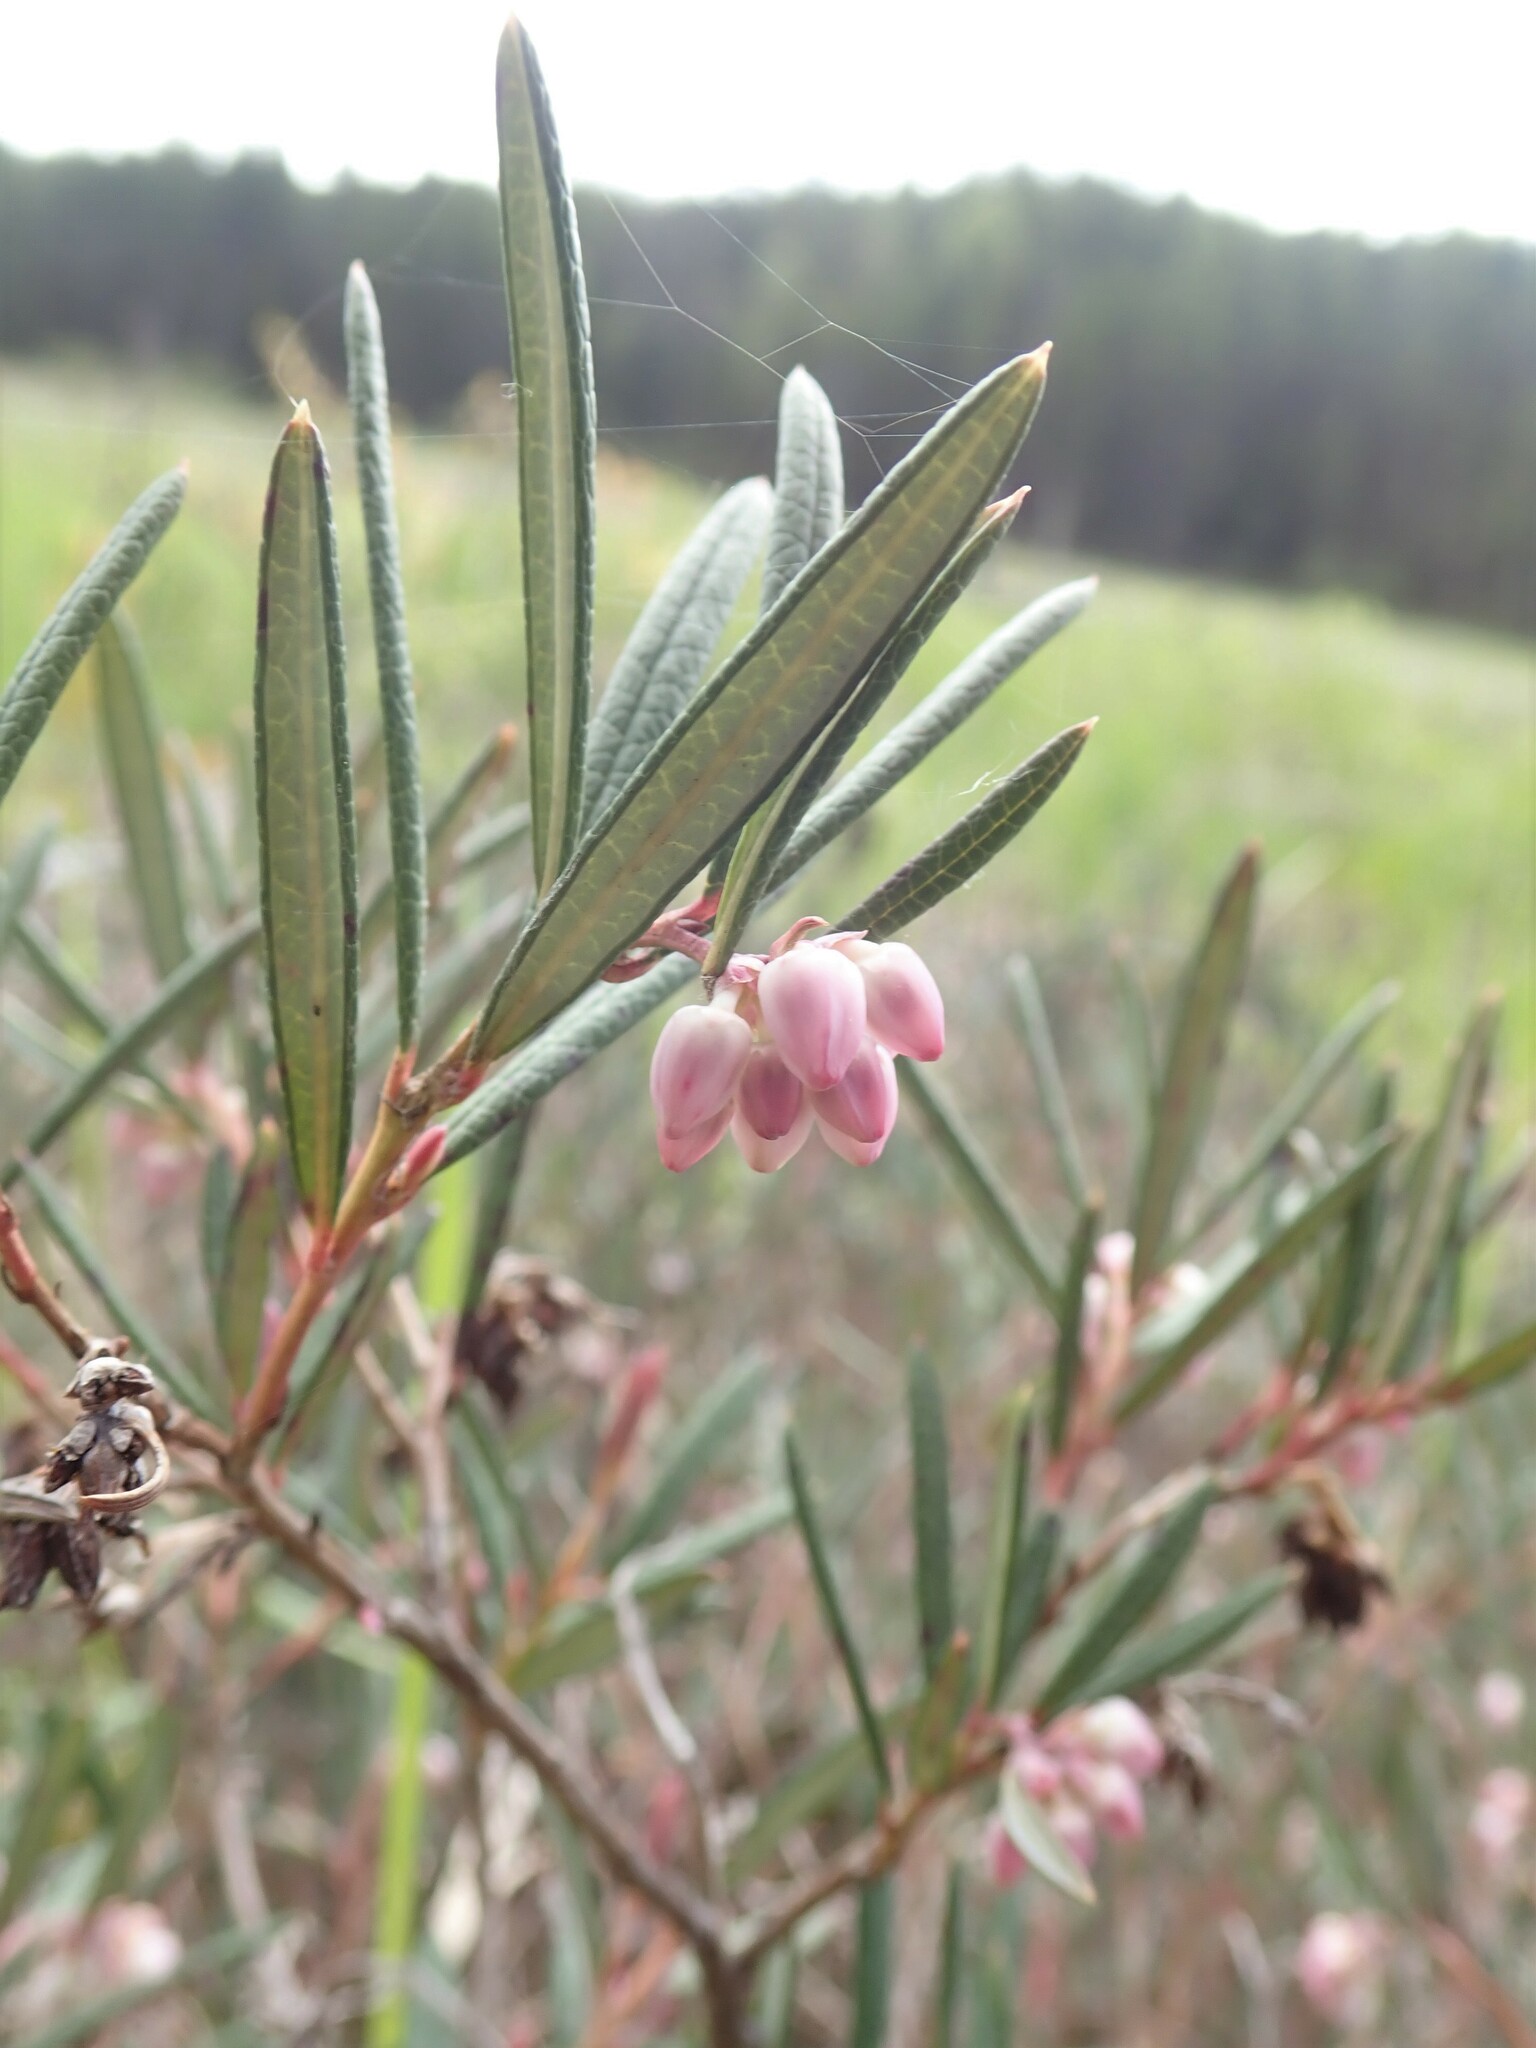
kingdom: Plantae
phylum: Tracheophyta
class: Magnoliopsida
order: Ericales
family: Ericaceae
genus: Andromeda
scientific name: Andromeda polifolia
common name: Bog-rosemary
